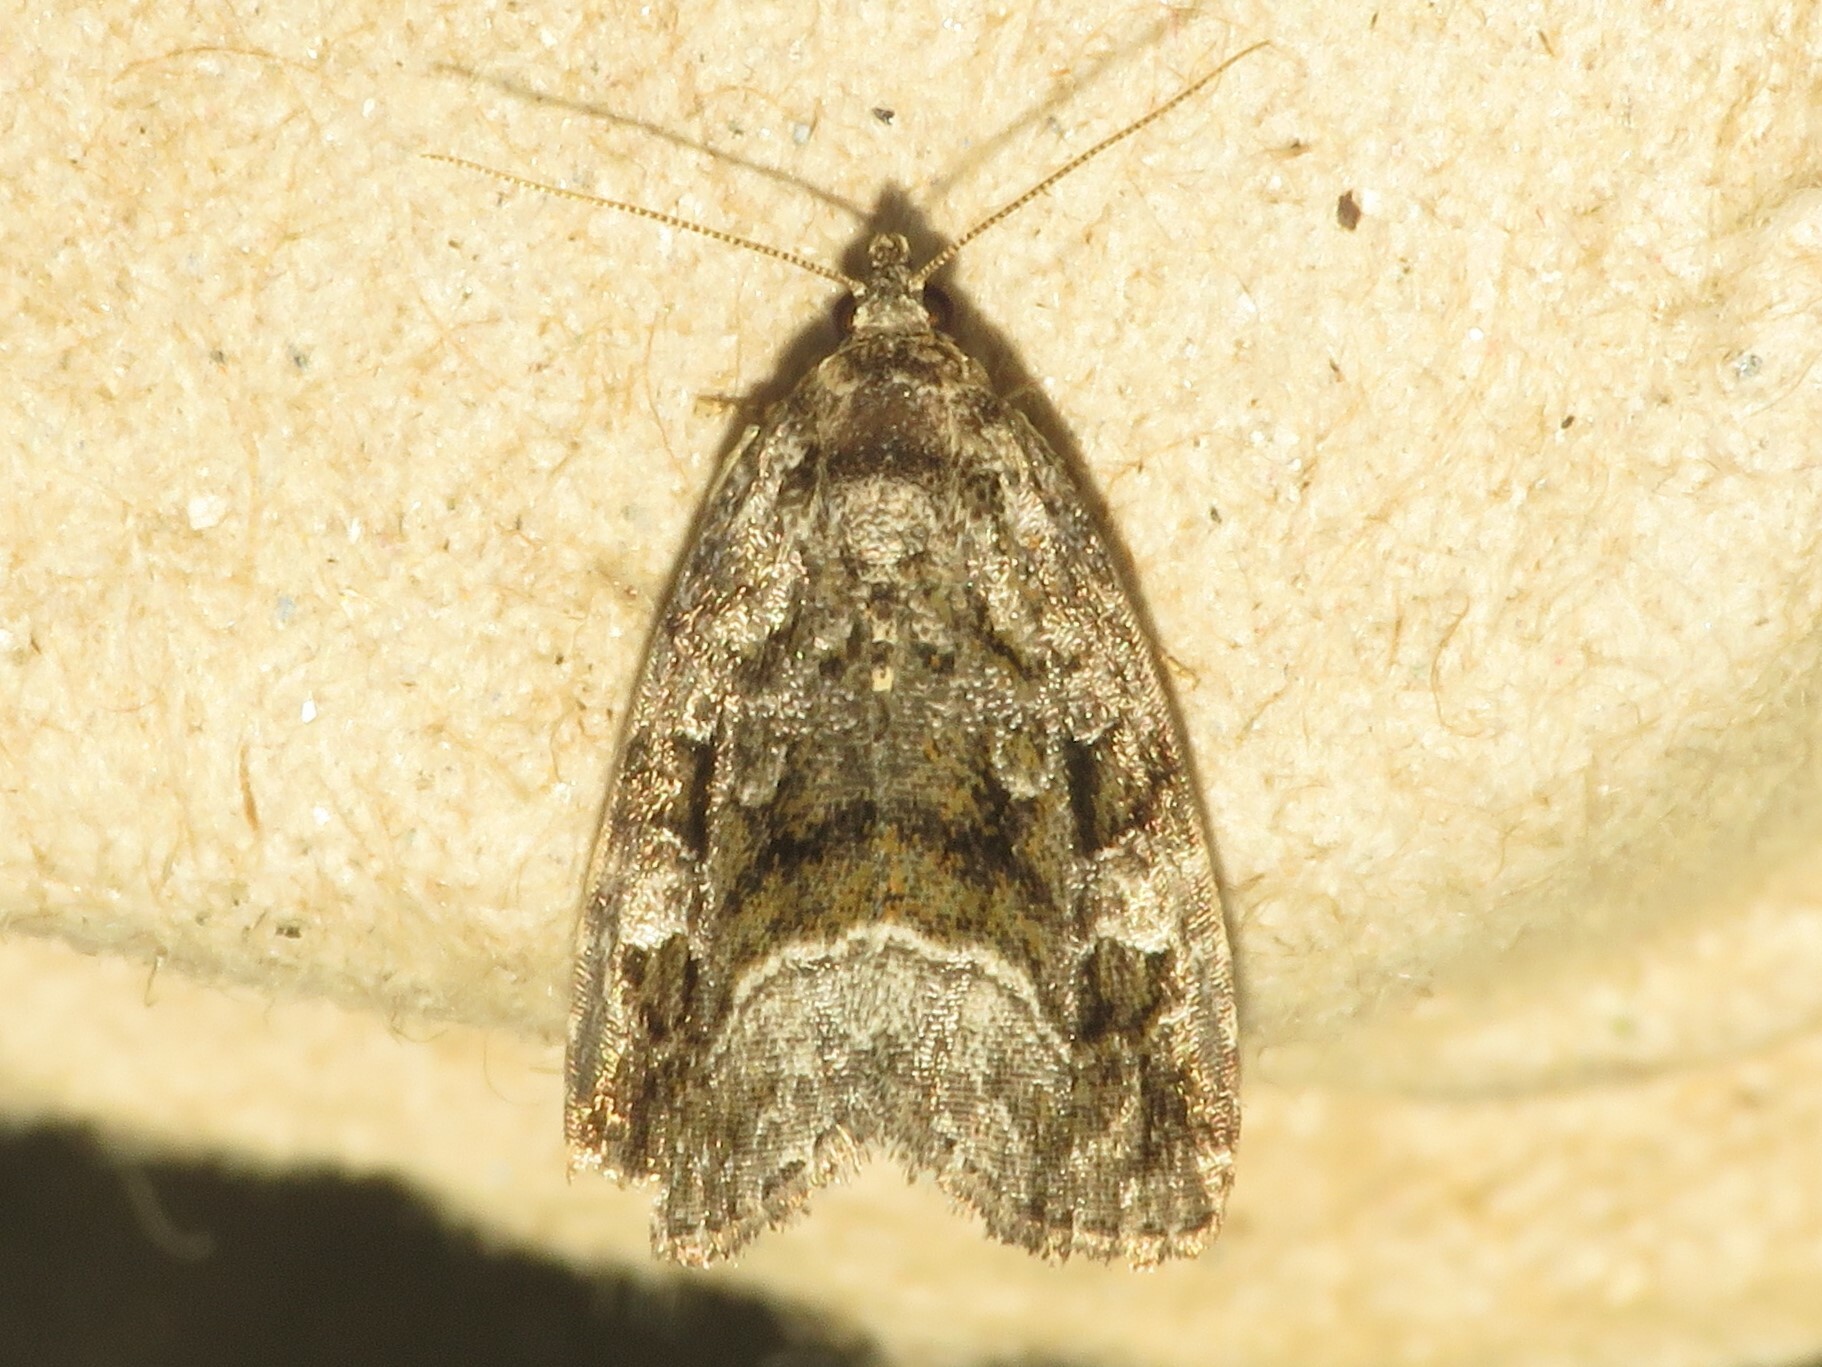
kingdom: Animalia
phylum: Arthropoda
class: Insecta
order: Lepidoptera
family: Noctuidae
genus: Protodeltote
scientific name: Protodeltote muscosula
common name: Large mossy glyph
